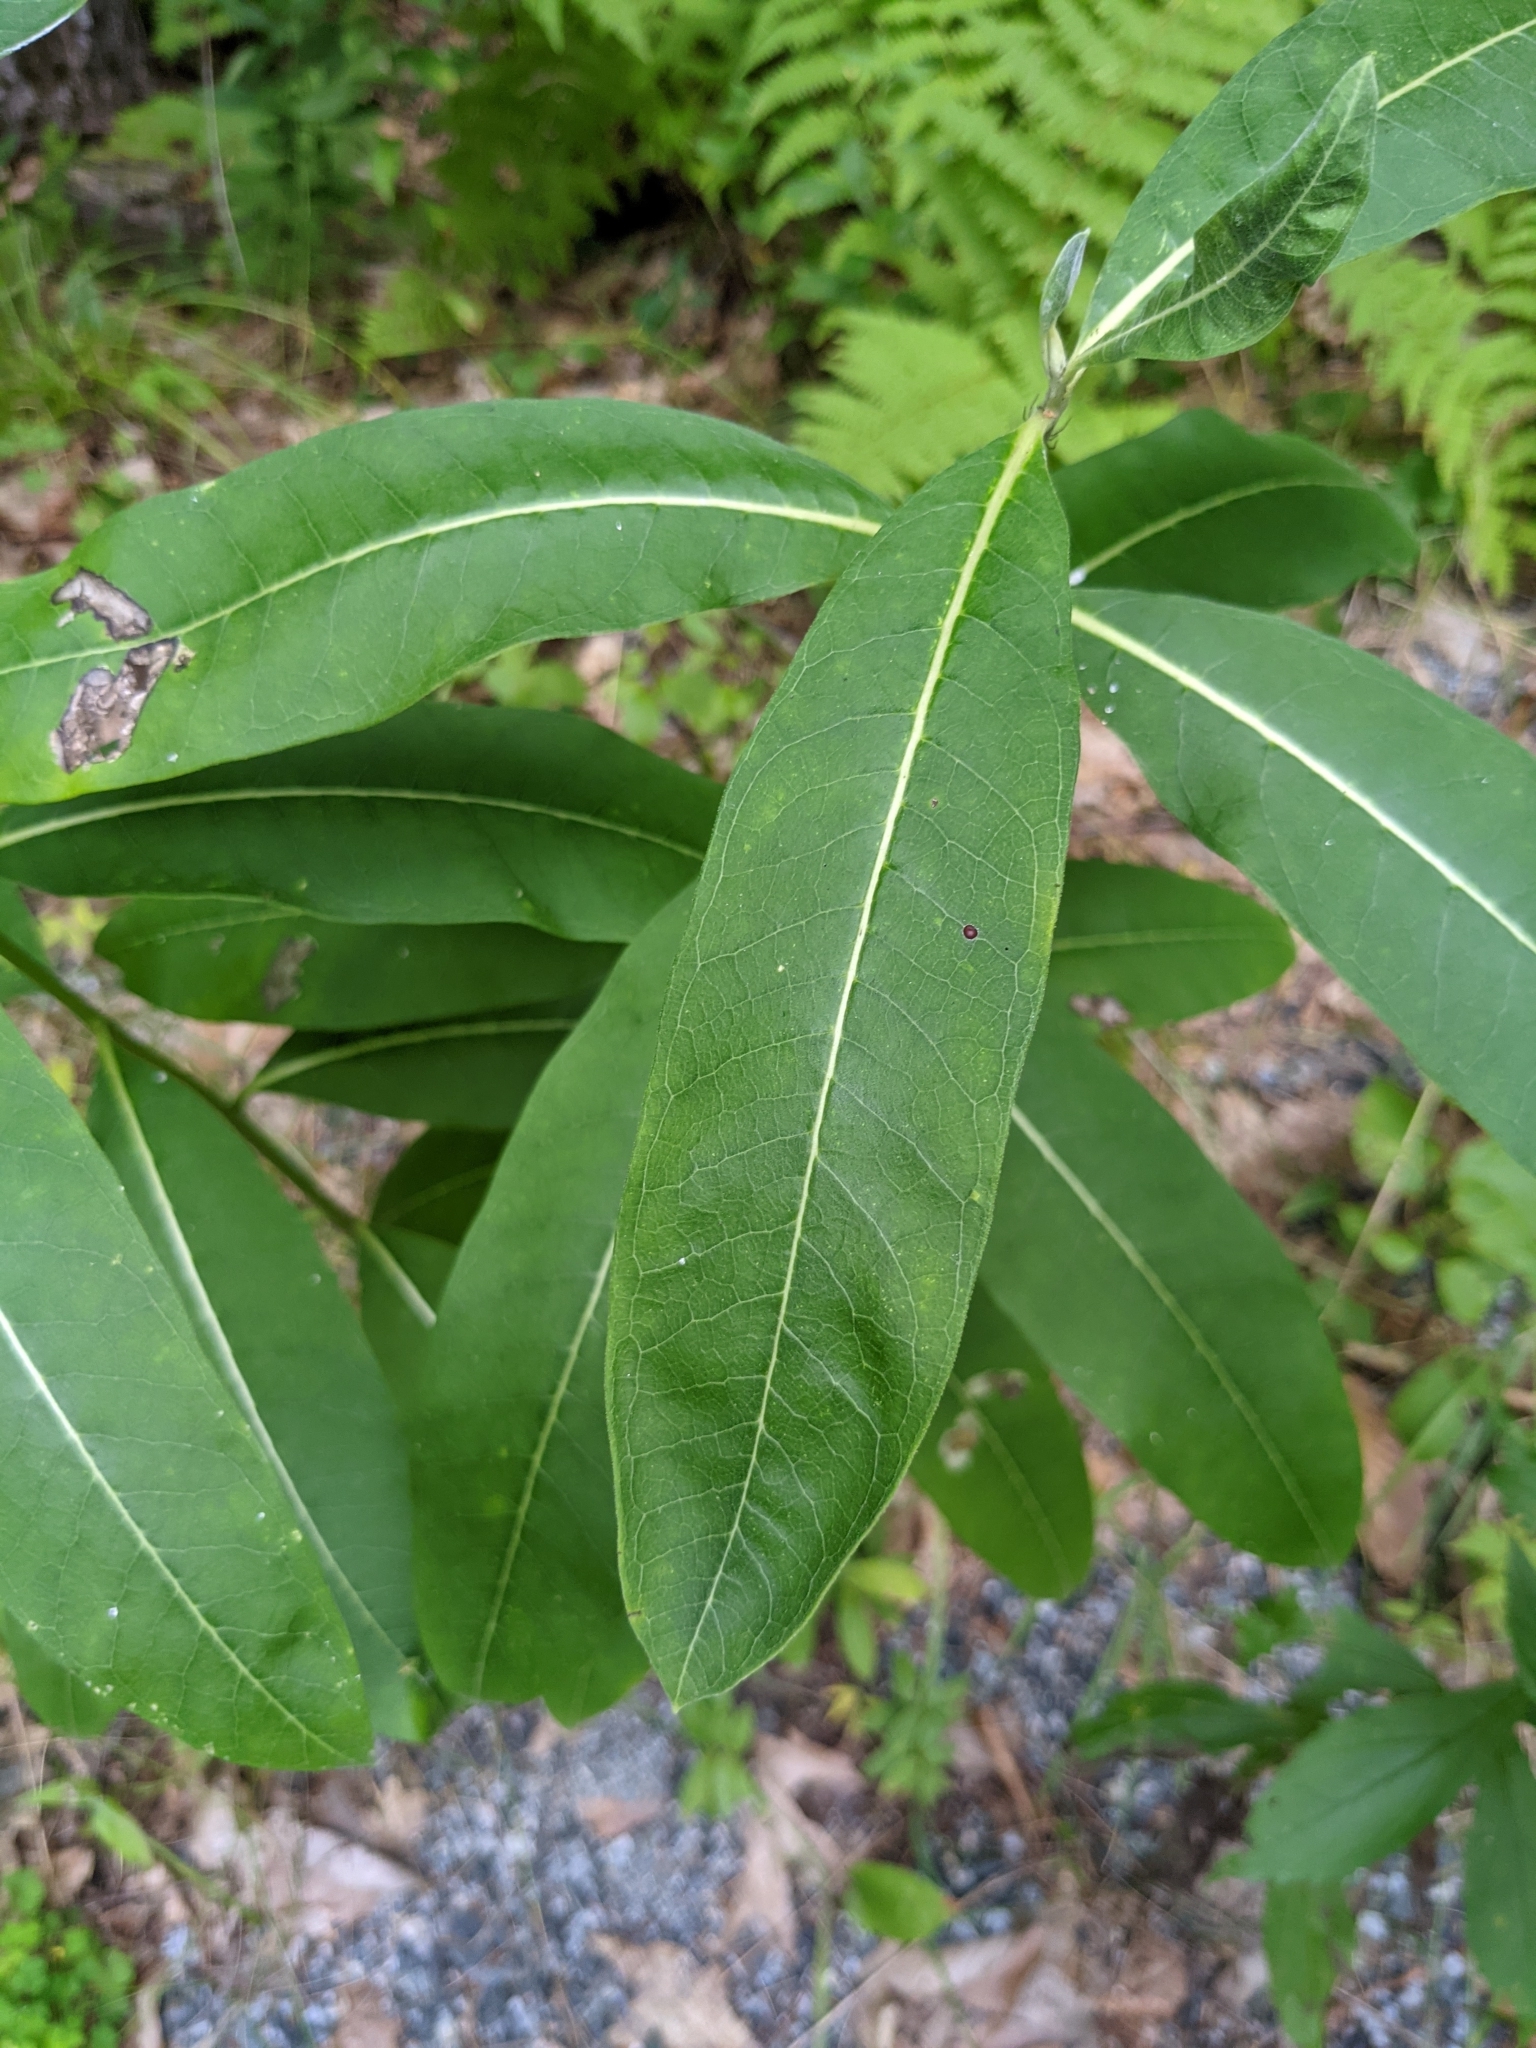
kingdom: Plantae
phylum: Tracheophyta
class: Magnoliopsida
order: Gentianales
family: Apocynaceae
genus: Asclepias
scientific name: Asclepias syriaca
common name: Common milkweed
